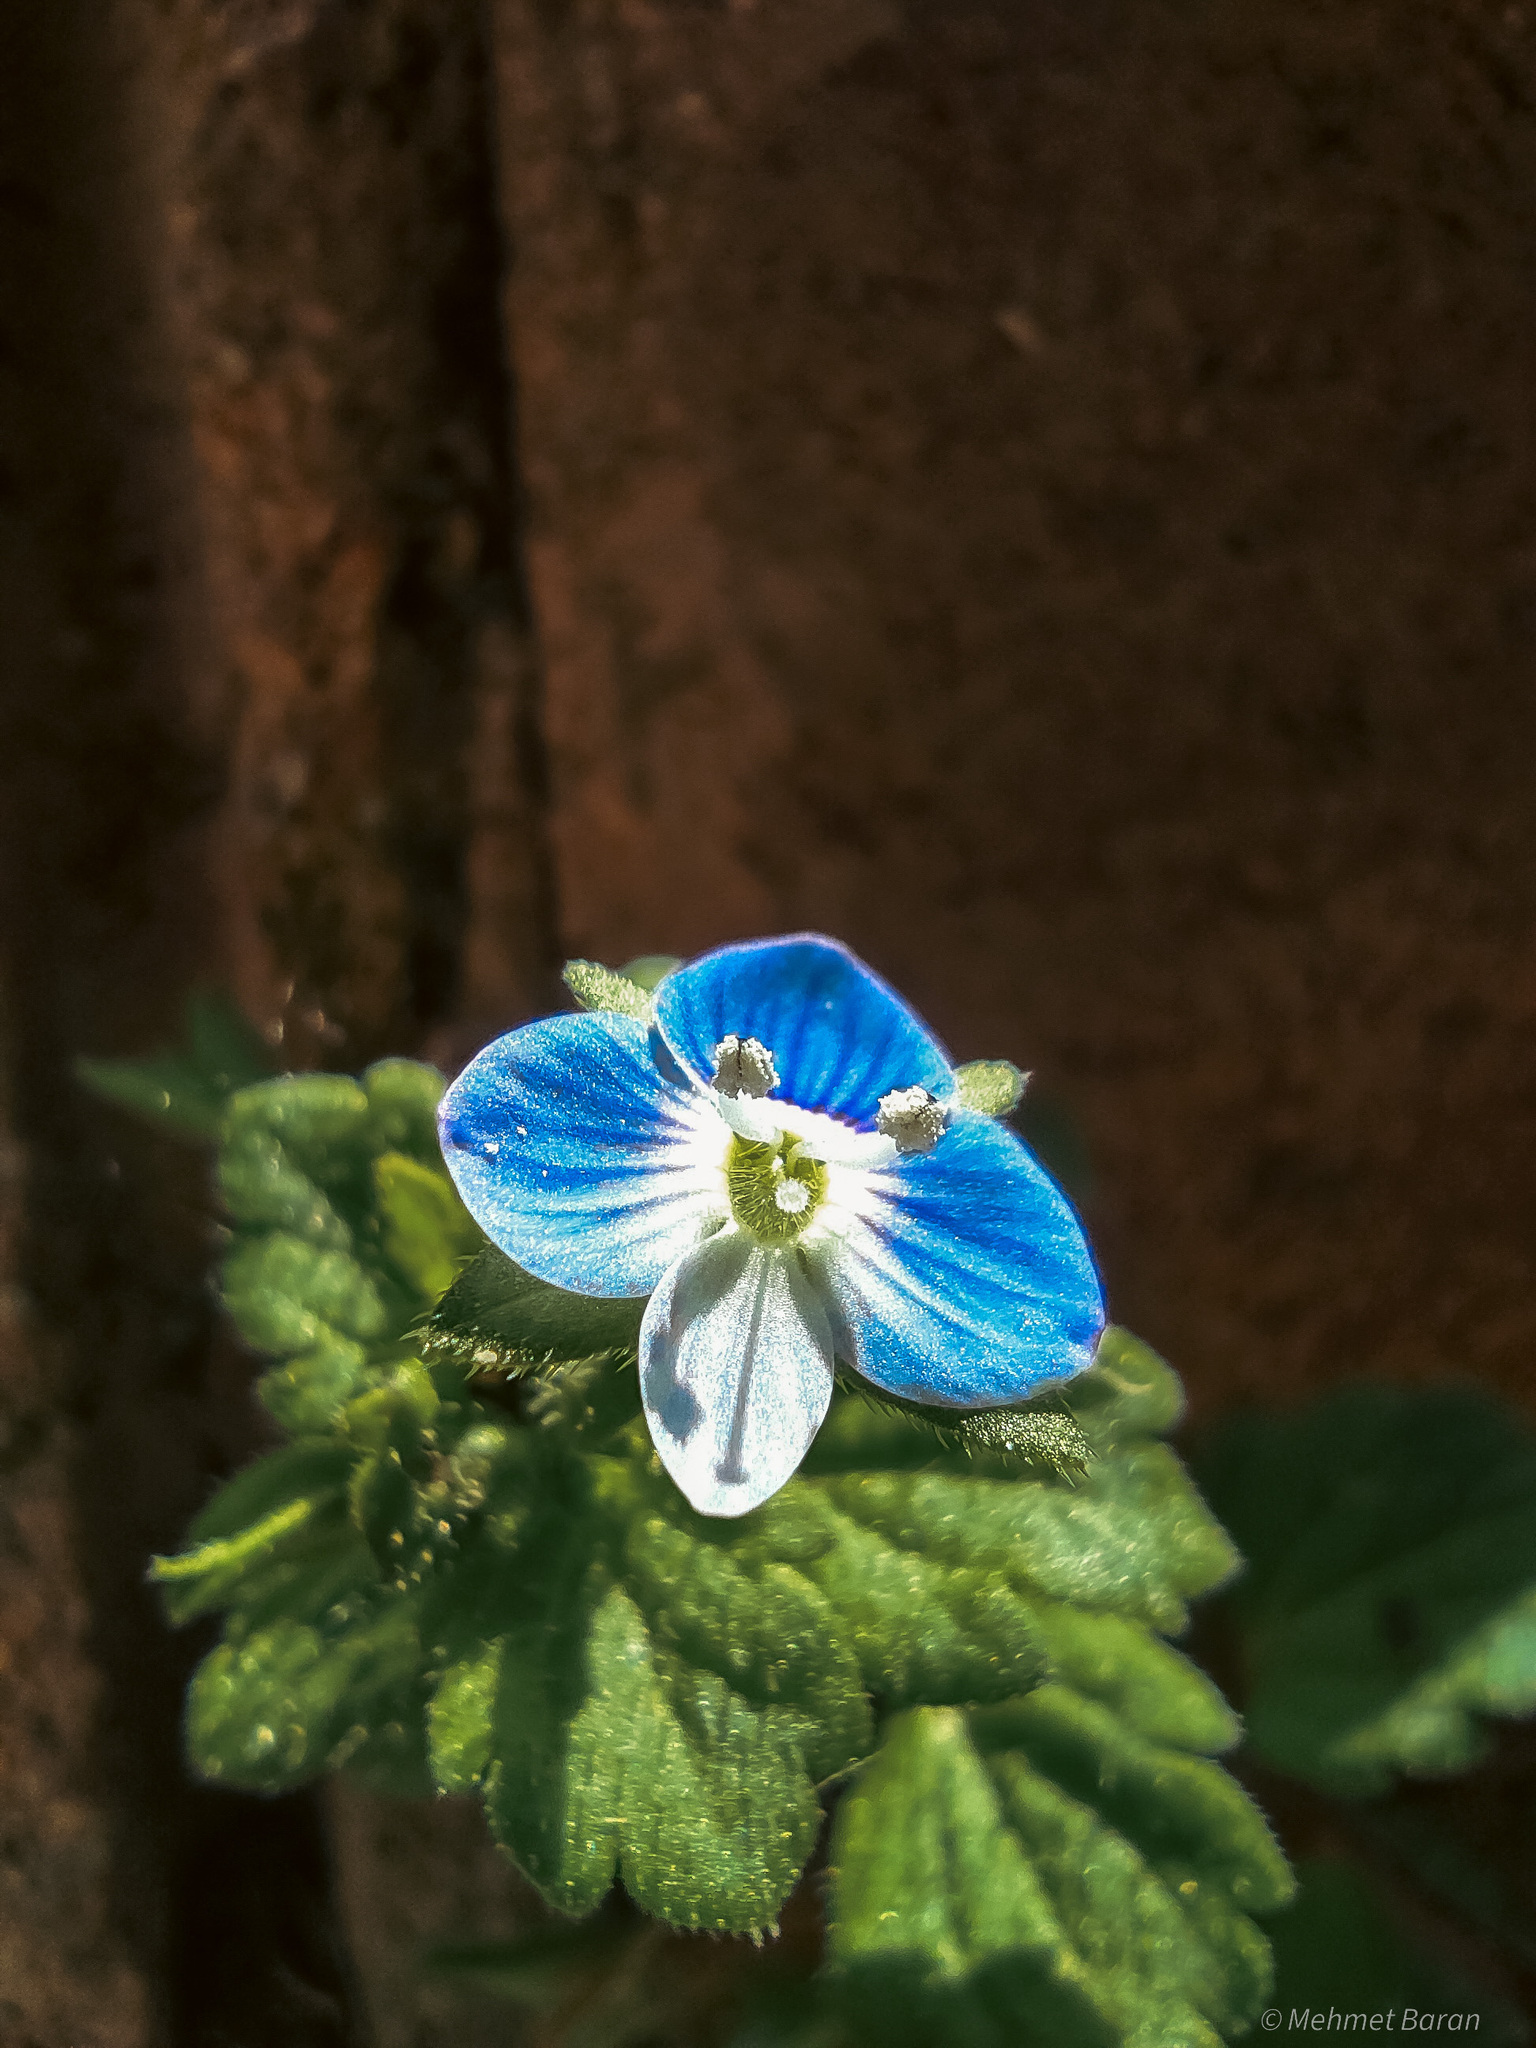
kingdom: Plantae
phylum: Tracheophyta
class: Magnoliopsida
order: Lamiales
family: Plantaginaceae
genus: Veronica
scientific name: Veronica persica
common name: Common field-speedwell
